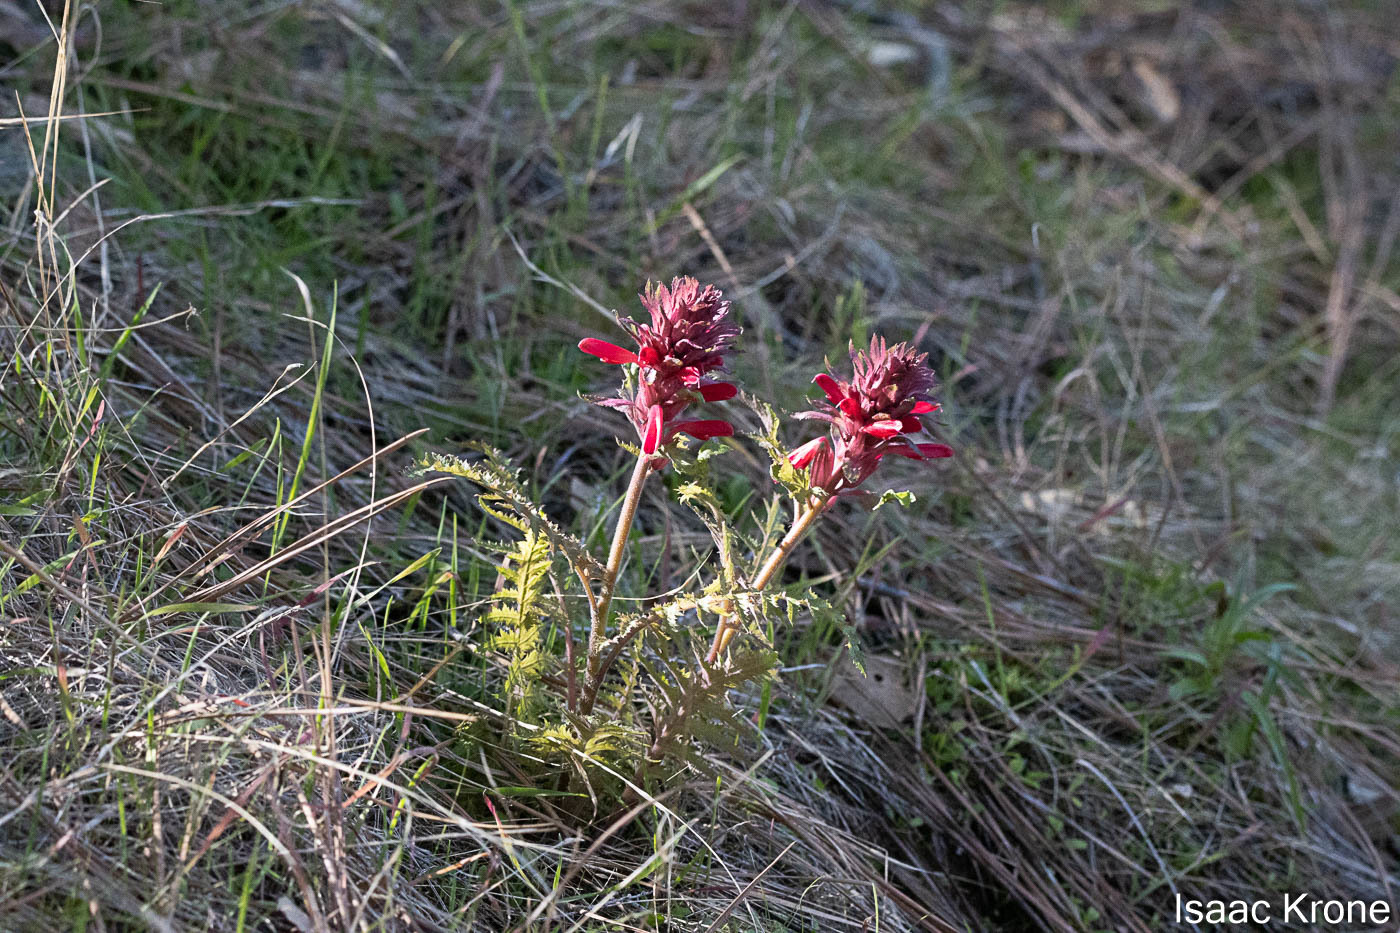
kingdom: Plantae
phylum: Tracheophyta
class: Magnoliopsida
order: Lamiales
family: Orobanchaceae
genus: Pedicularis
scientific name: Pedicularis densiflora
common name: Indian warrior
